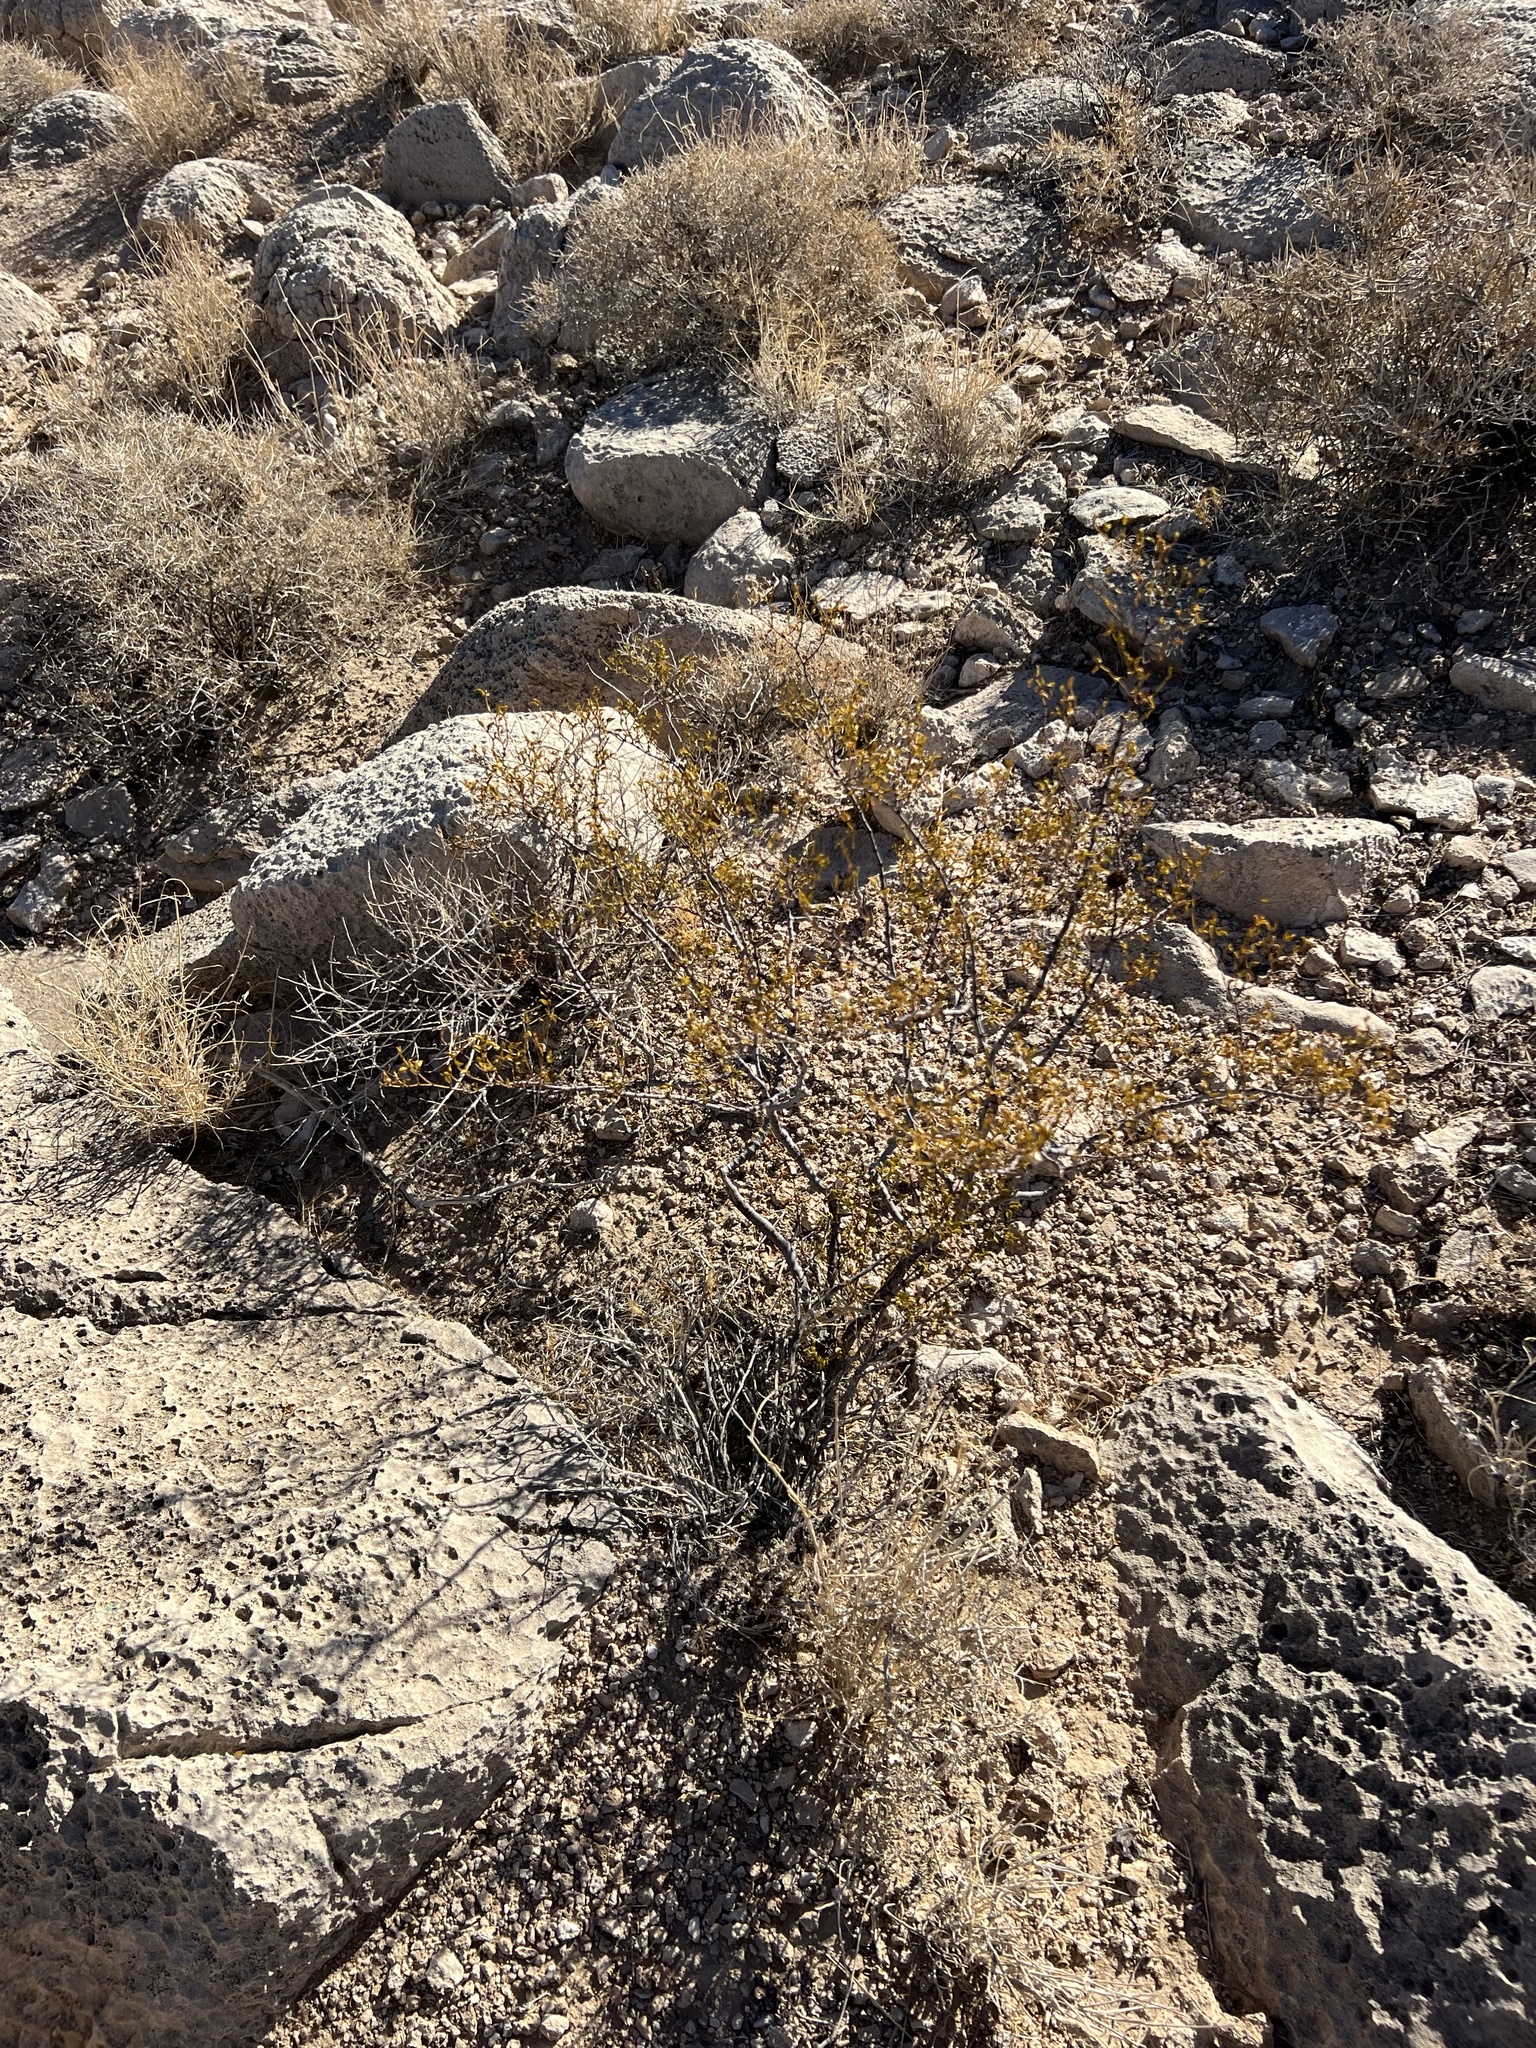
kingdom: Plantae
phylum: Tracheophyta
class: Magnoliopsida
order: Zygophyllales
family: Zygophyllaceae
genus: Larrea
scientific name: Larrea tridentata
